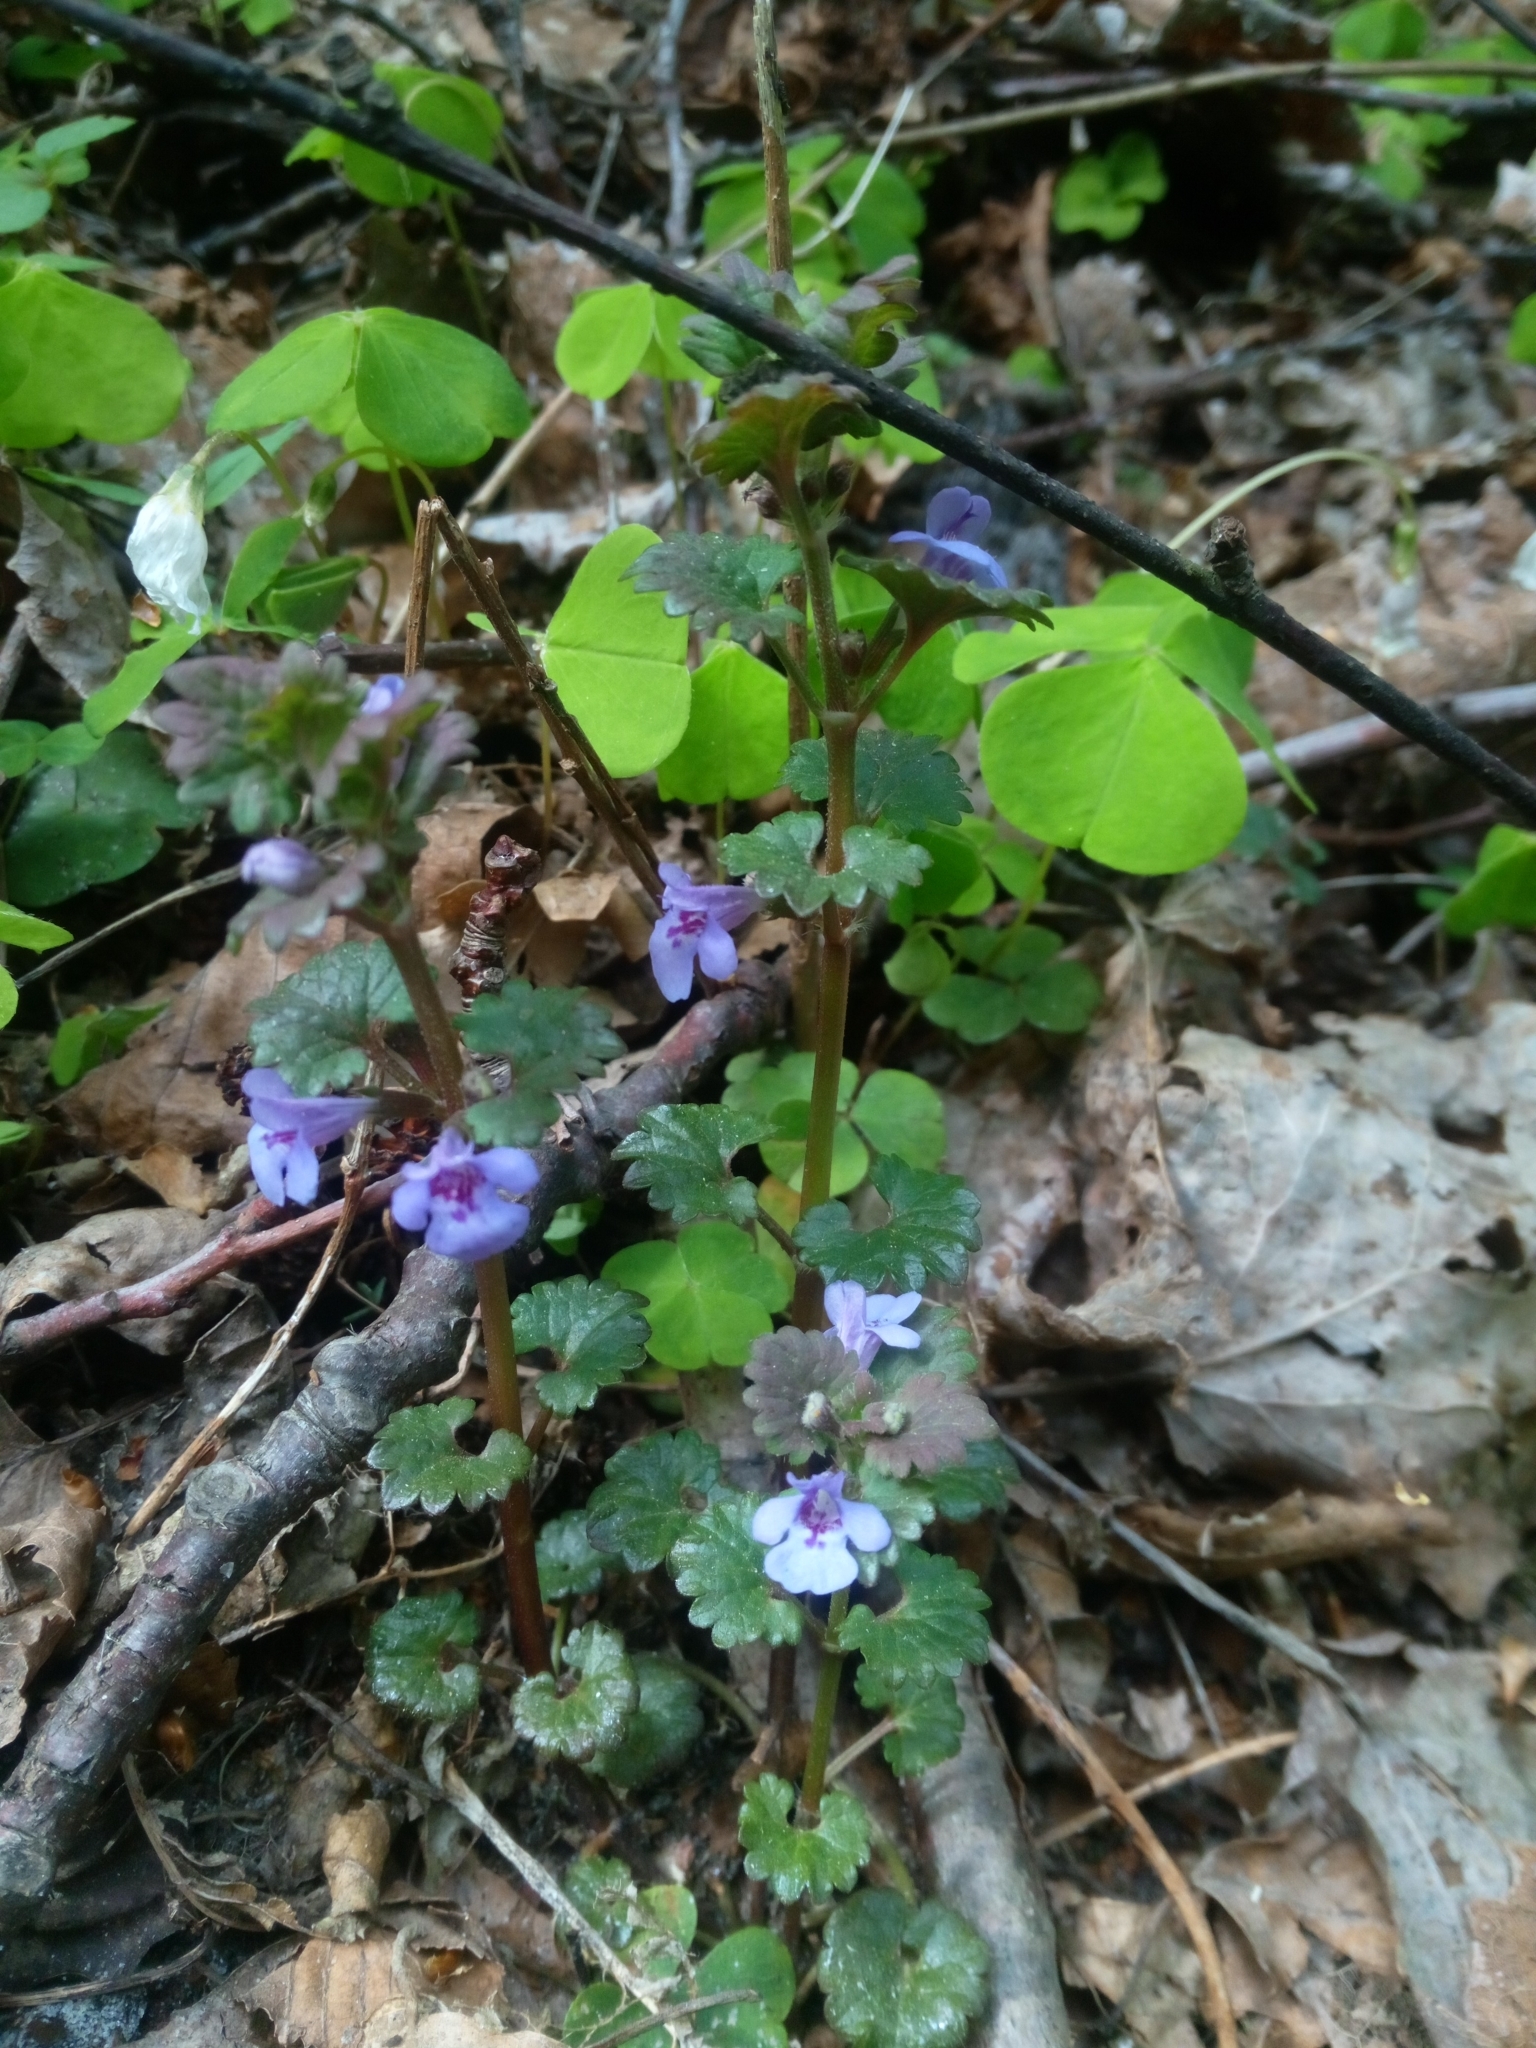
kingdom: Plantae
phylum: Tracheophyta
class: Magnoliopsida
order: Lamiales
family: Lamiaceae
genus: Glechoma
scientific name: Glechoma hederacea
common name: Ground ivy
